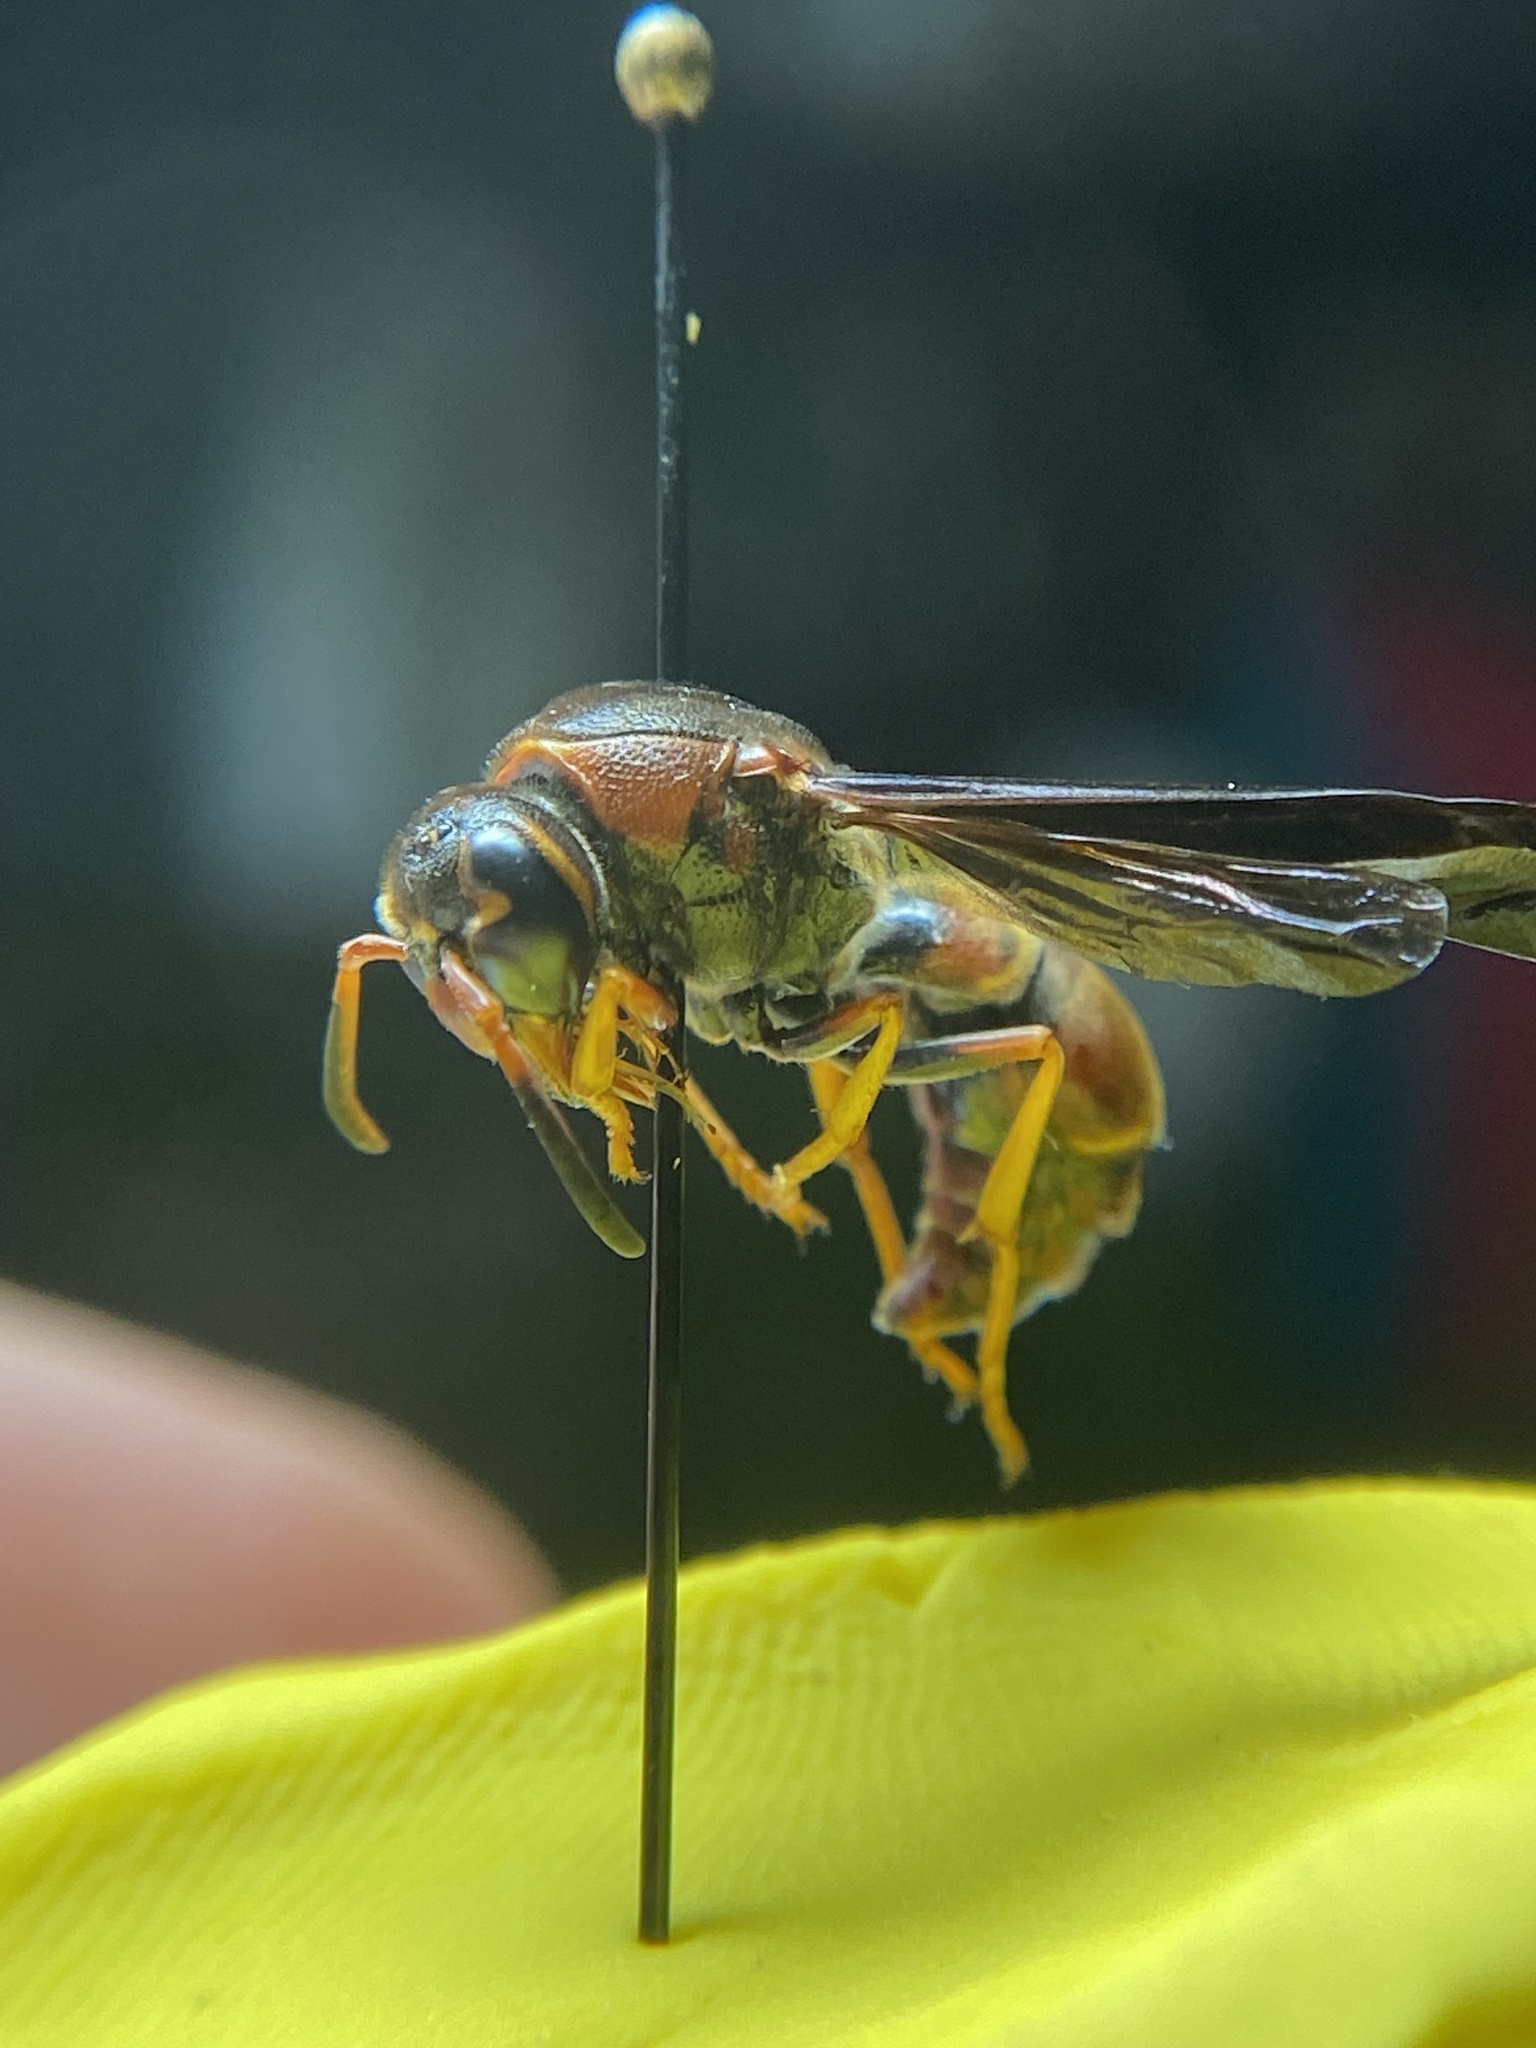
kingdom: Animalia
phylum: Arthropoda
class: Insecta
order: Hymenoptera
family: Eumenidae
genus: Parazumia
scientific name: Parazumia tolteca
